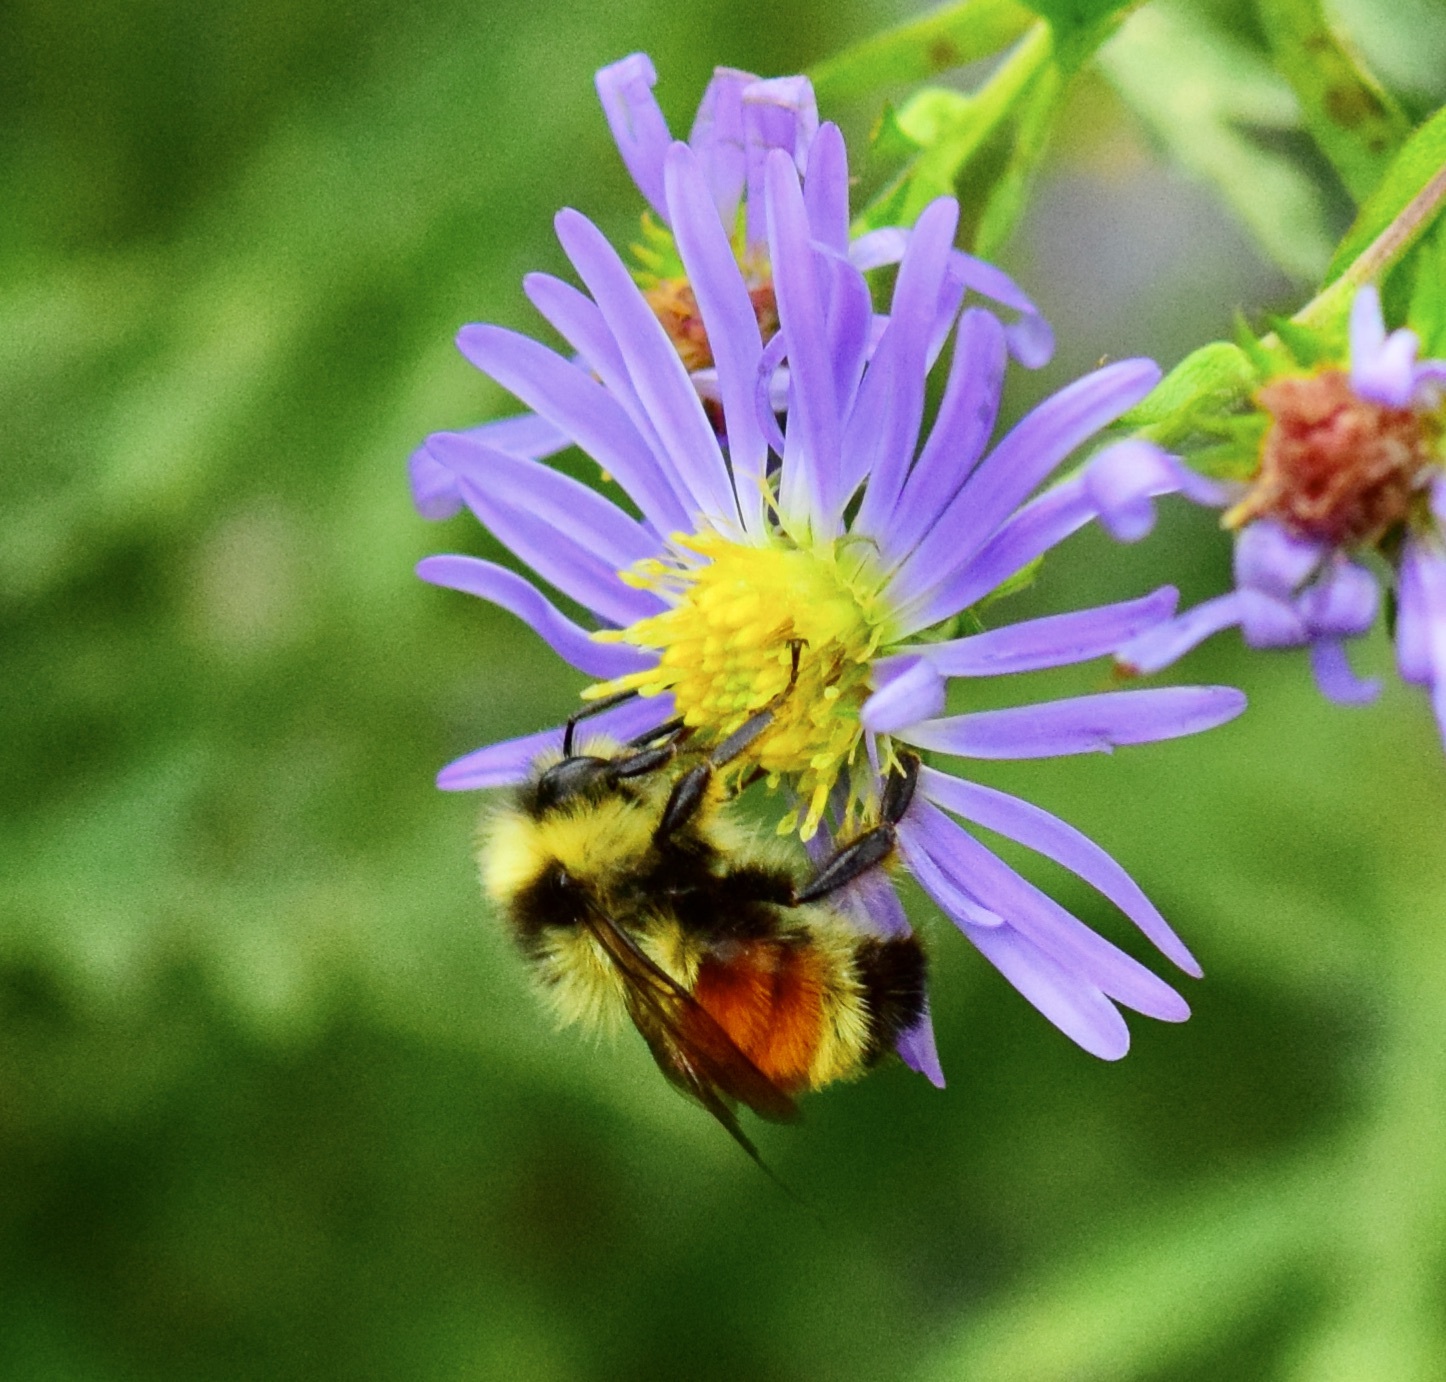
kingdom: Animalia
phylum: Arthropoda
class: Insecta
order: Hymenoptera
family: Apidae
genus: Bombus
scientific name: Bombus ternarius
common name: Tri-colored bumble bee
